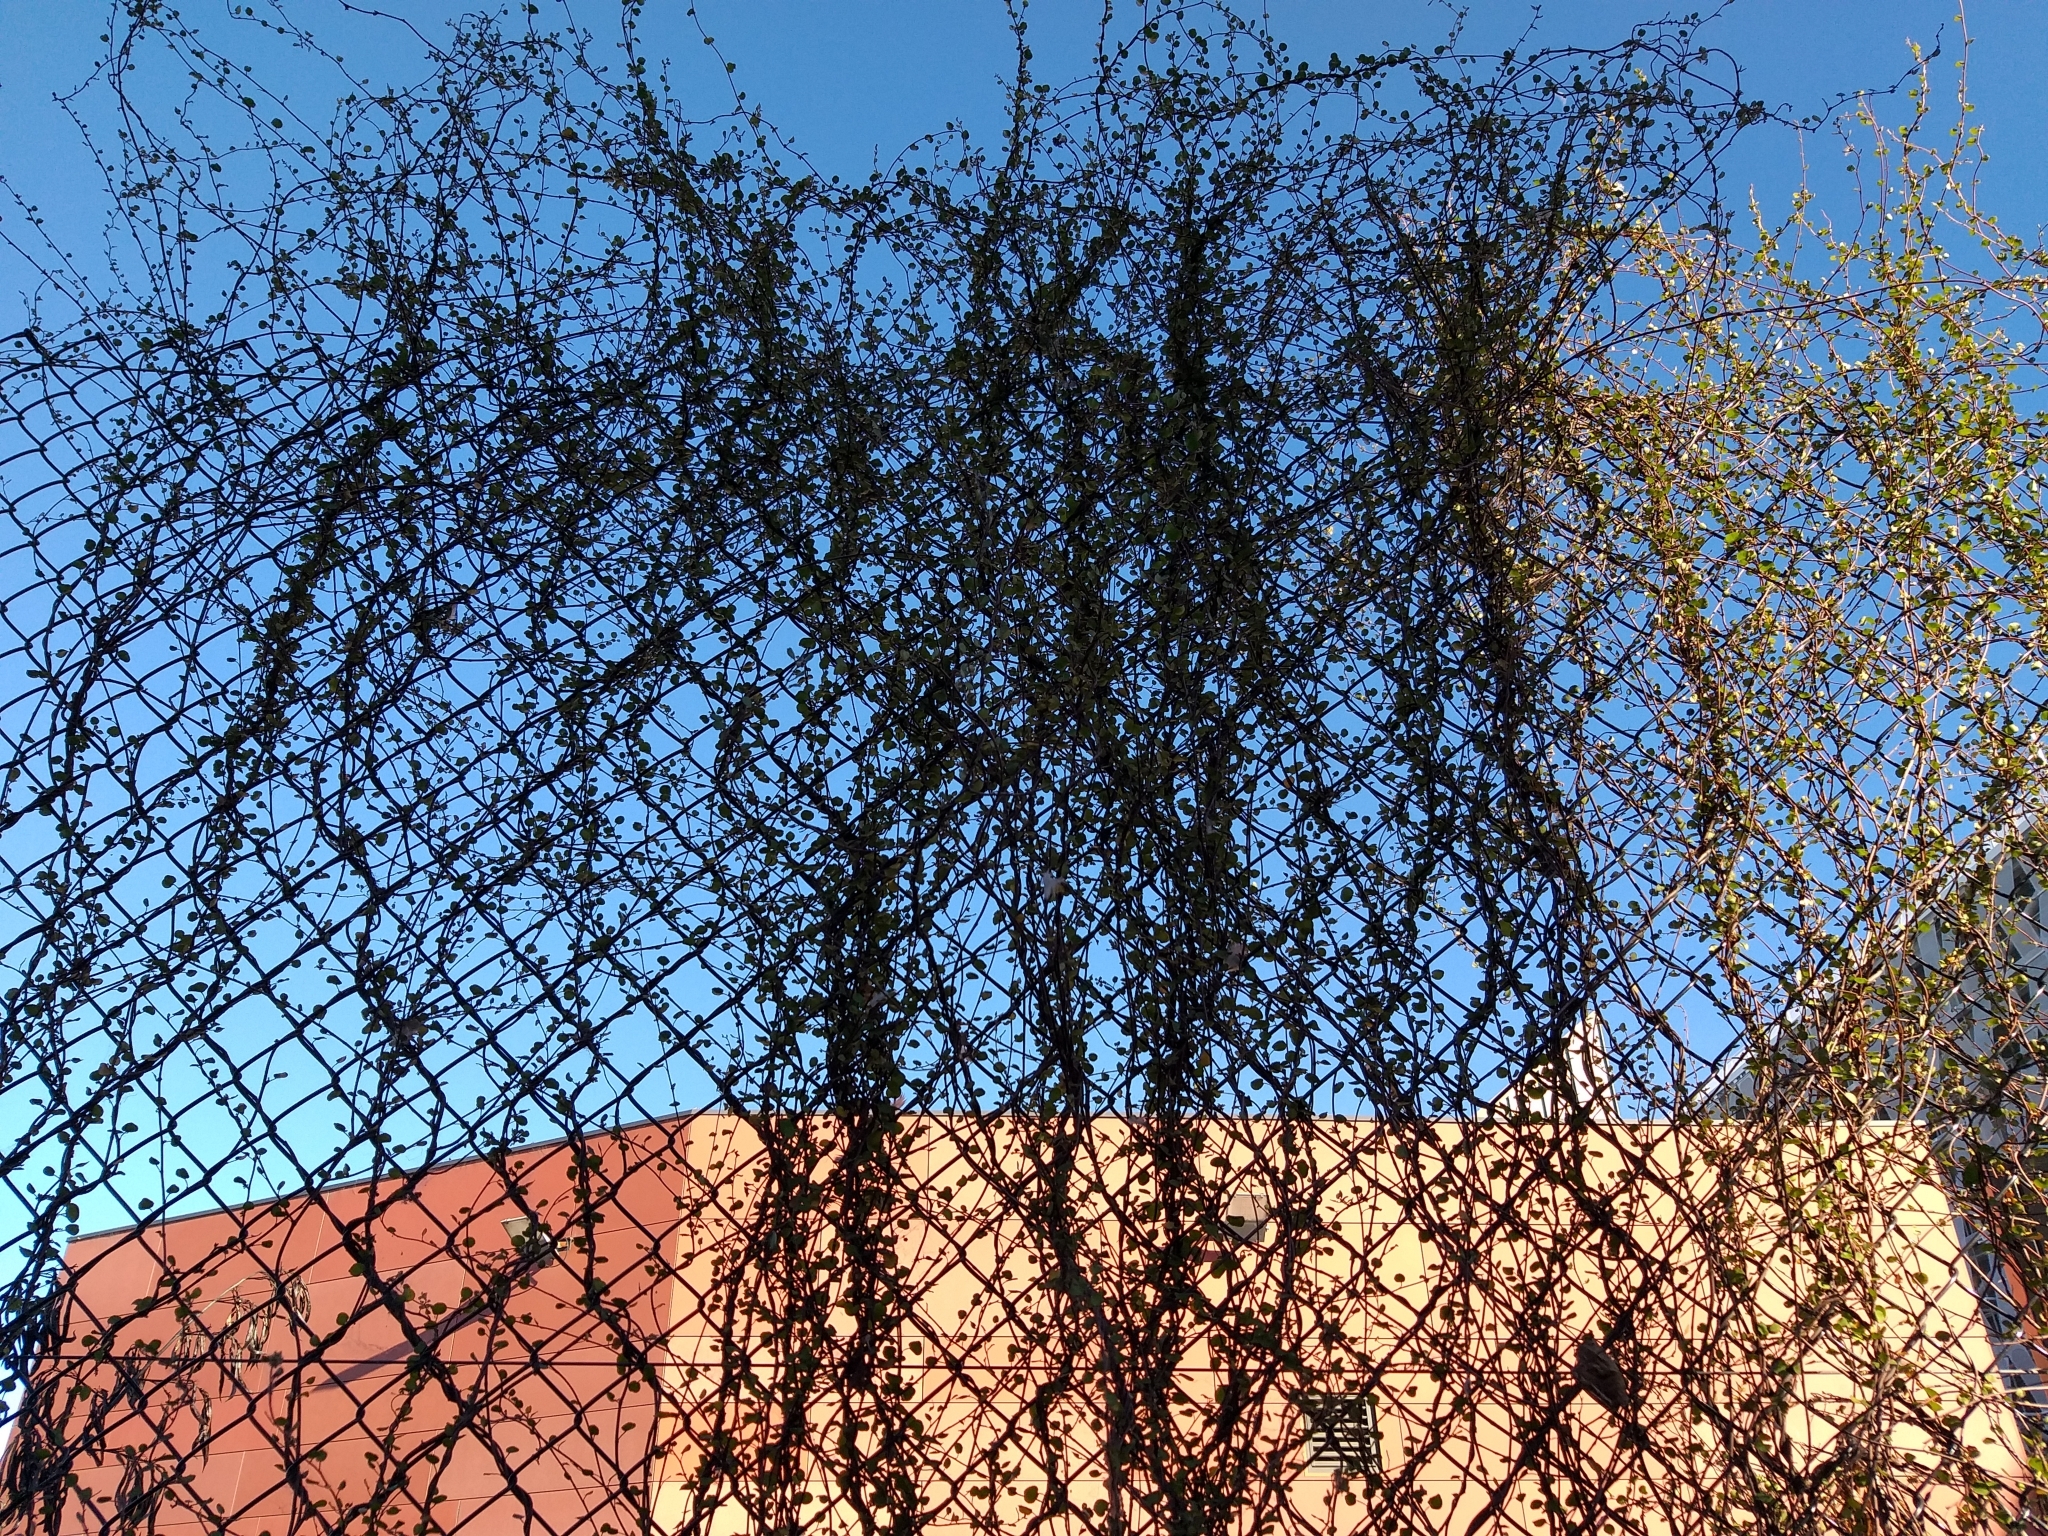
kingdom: Plantae
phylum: Tracheophyta
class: Magnoliopsida
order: Caryophyllales
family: Polygonaceae
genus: Muehlenbeckia
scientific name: Muehlenbeckia complexa
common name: Wireplant
